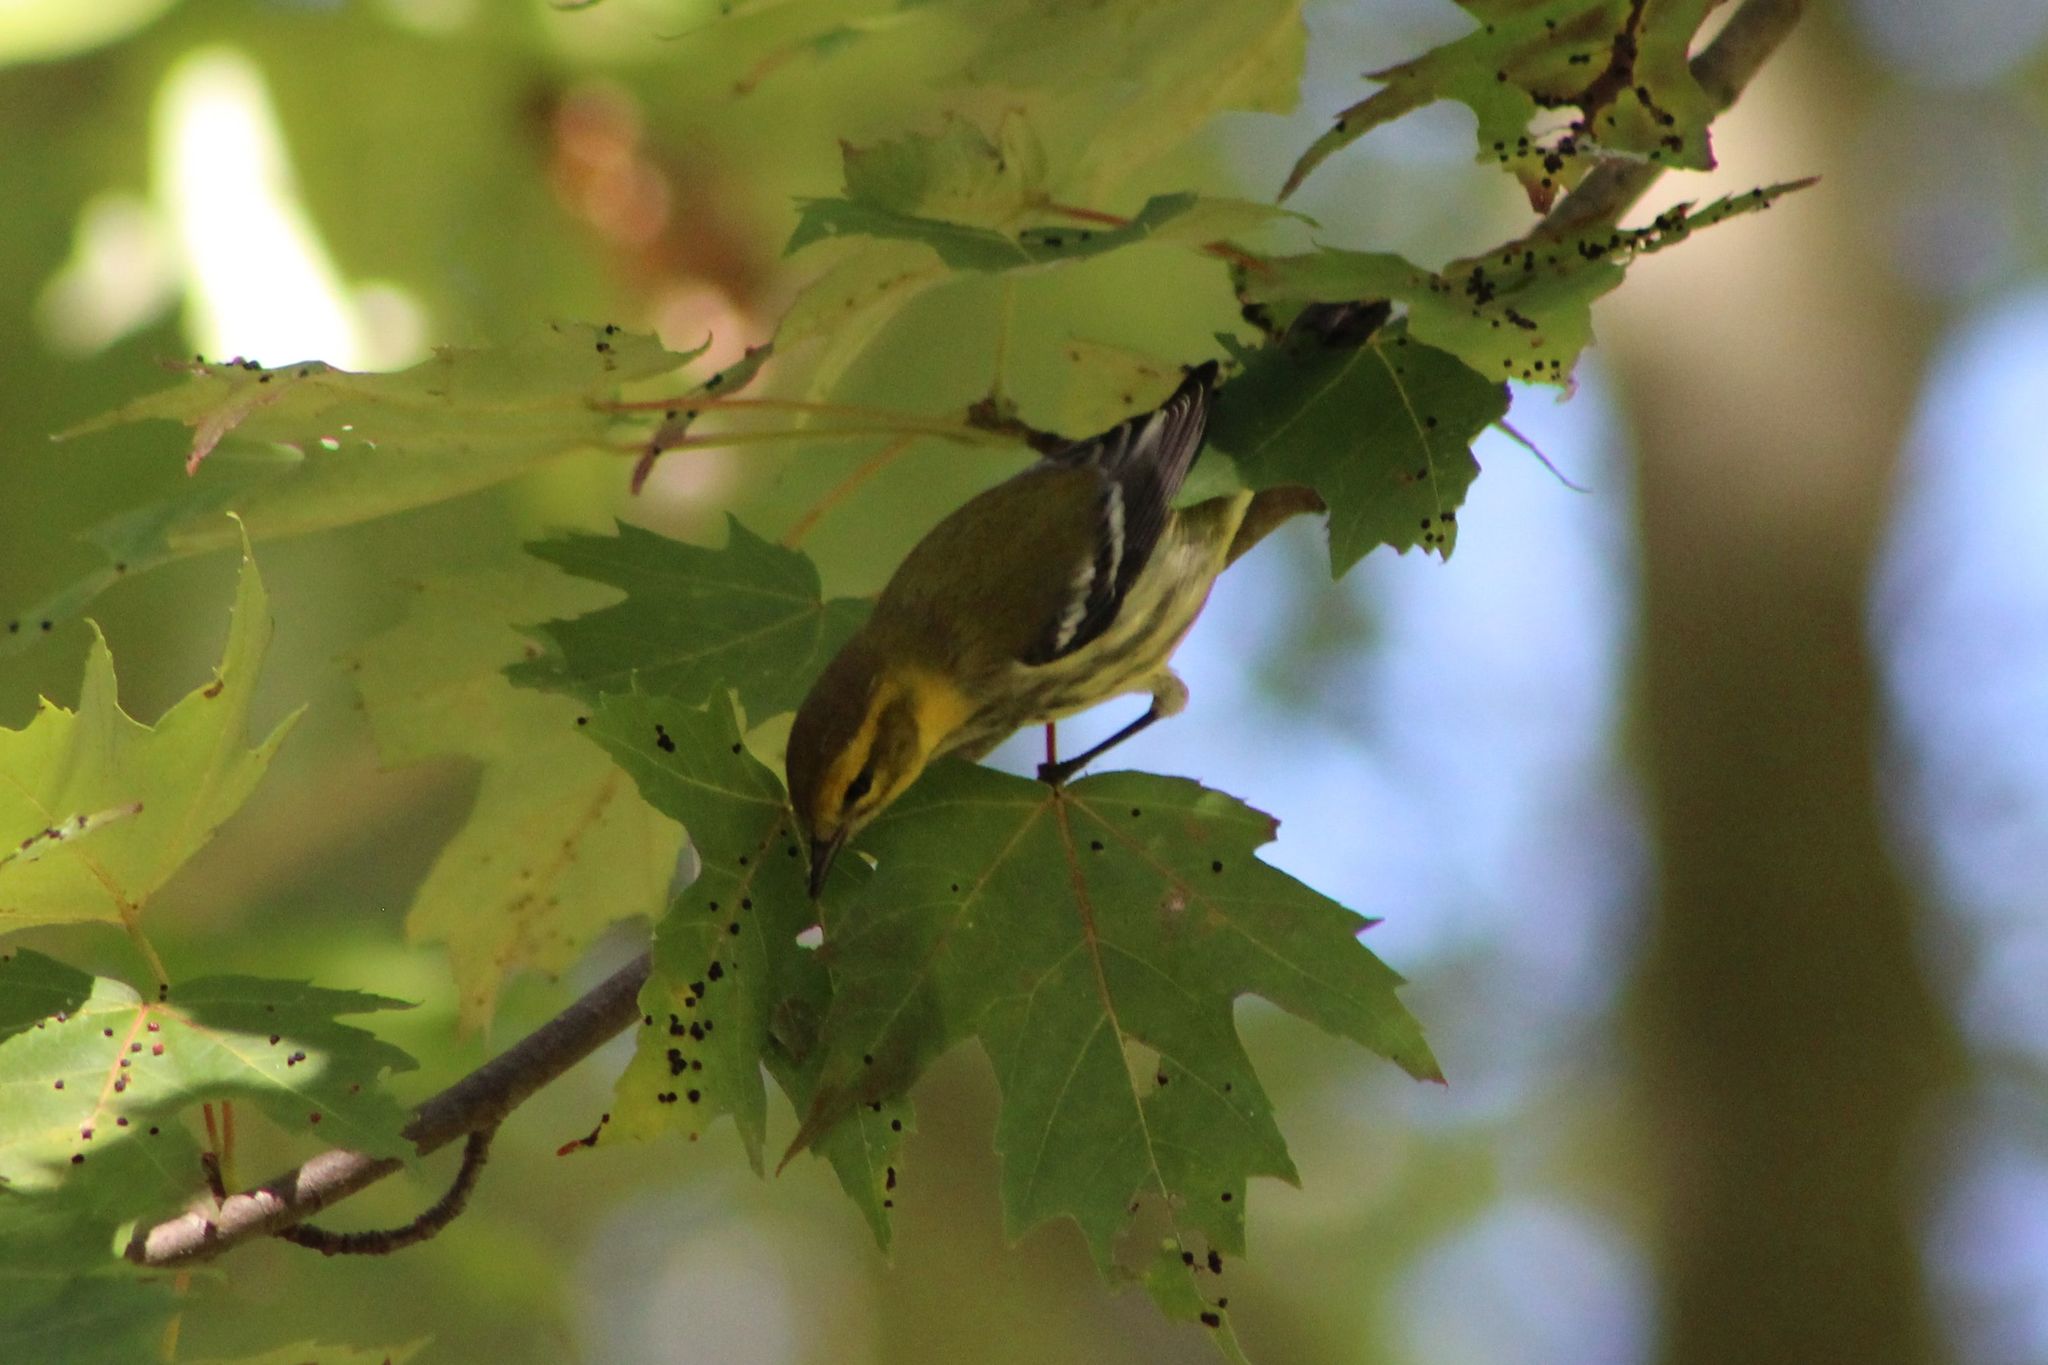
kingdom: Animalia
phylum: Chordata
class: Aves
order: Passeriformes
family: Parulidae
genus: Setophaga
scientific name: Setophaga virens
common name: Black-throated green warbler
